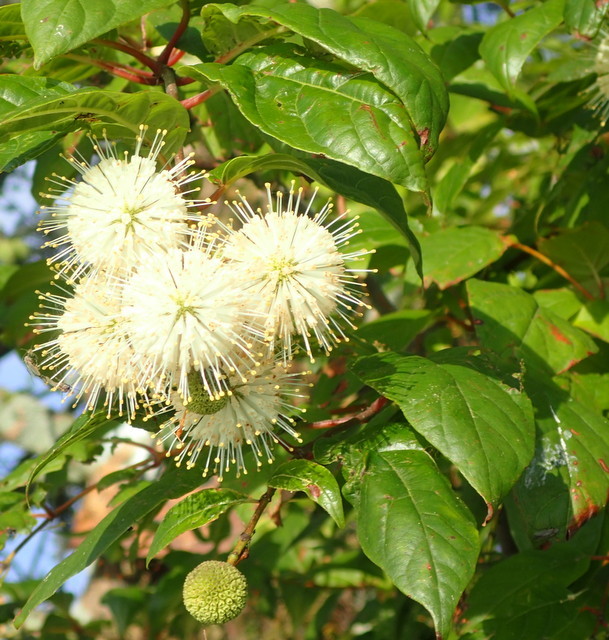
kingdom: Plantae
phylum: Tracheophyta
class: Magnoliopsida
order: Gentianales
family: Rubiaceae
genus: Cephalanthus
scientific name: Cephalanthus occidentalis
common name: Button-willow
